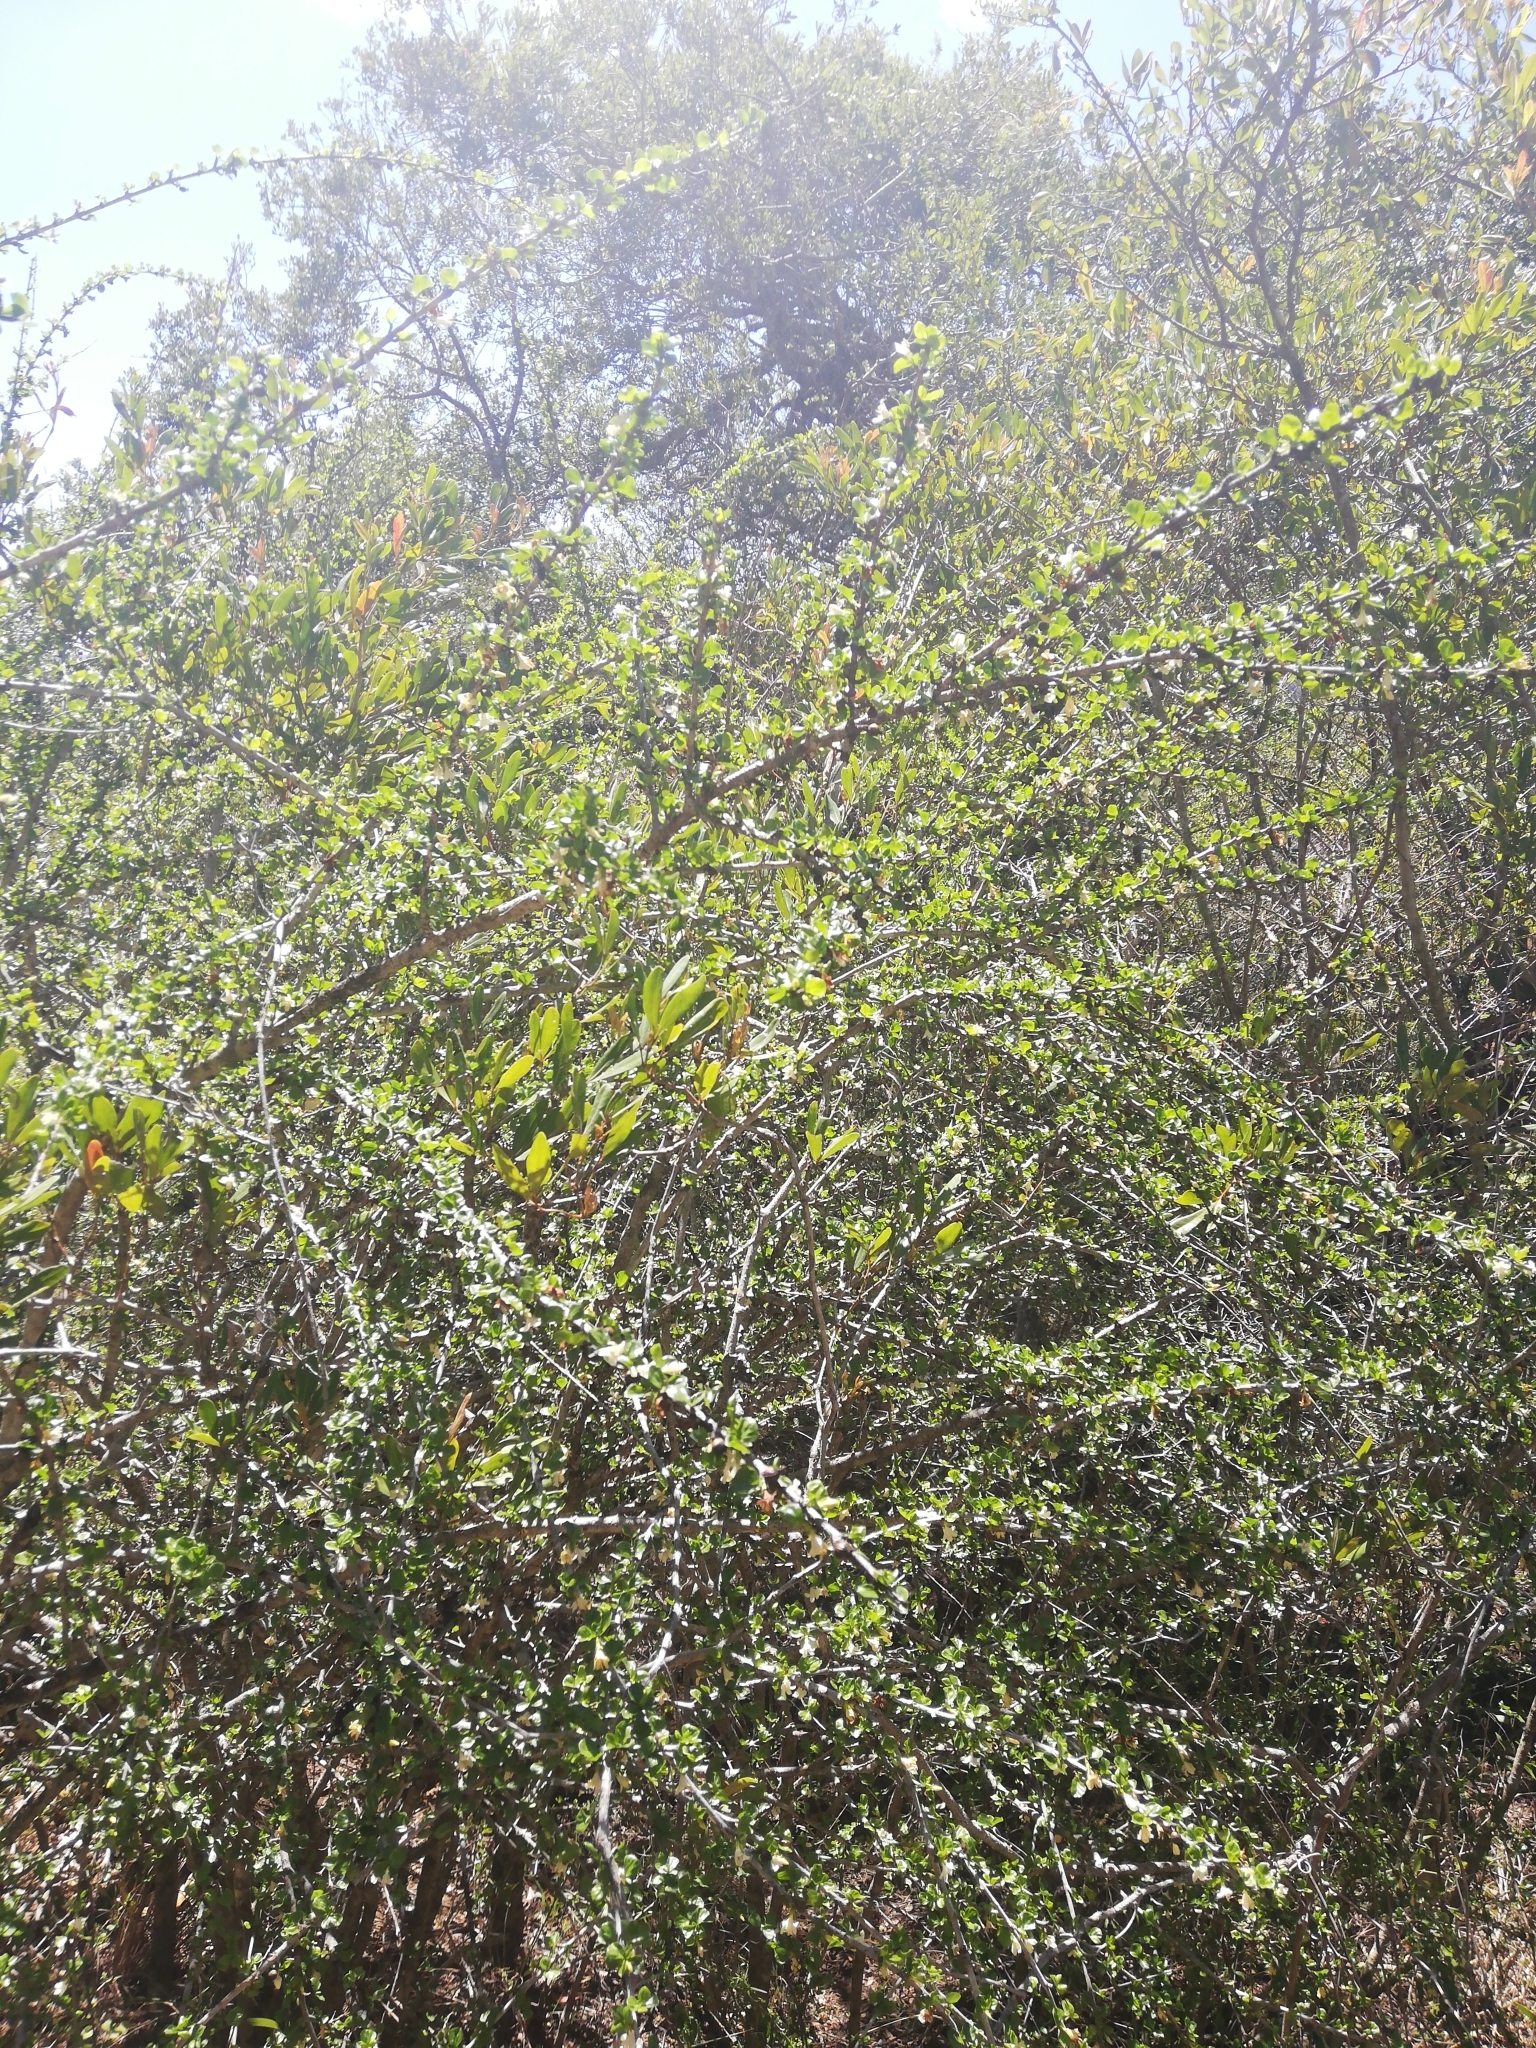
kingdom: Plantae
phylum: Tracheophyta
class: Magnoliopsida
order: Gentianales
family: Rubiaceae
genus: Coddia
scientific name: Coddia rudis
